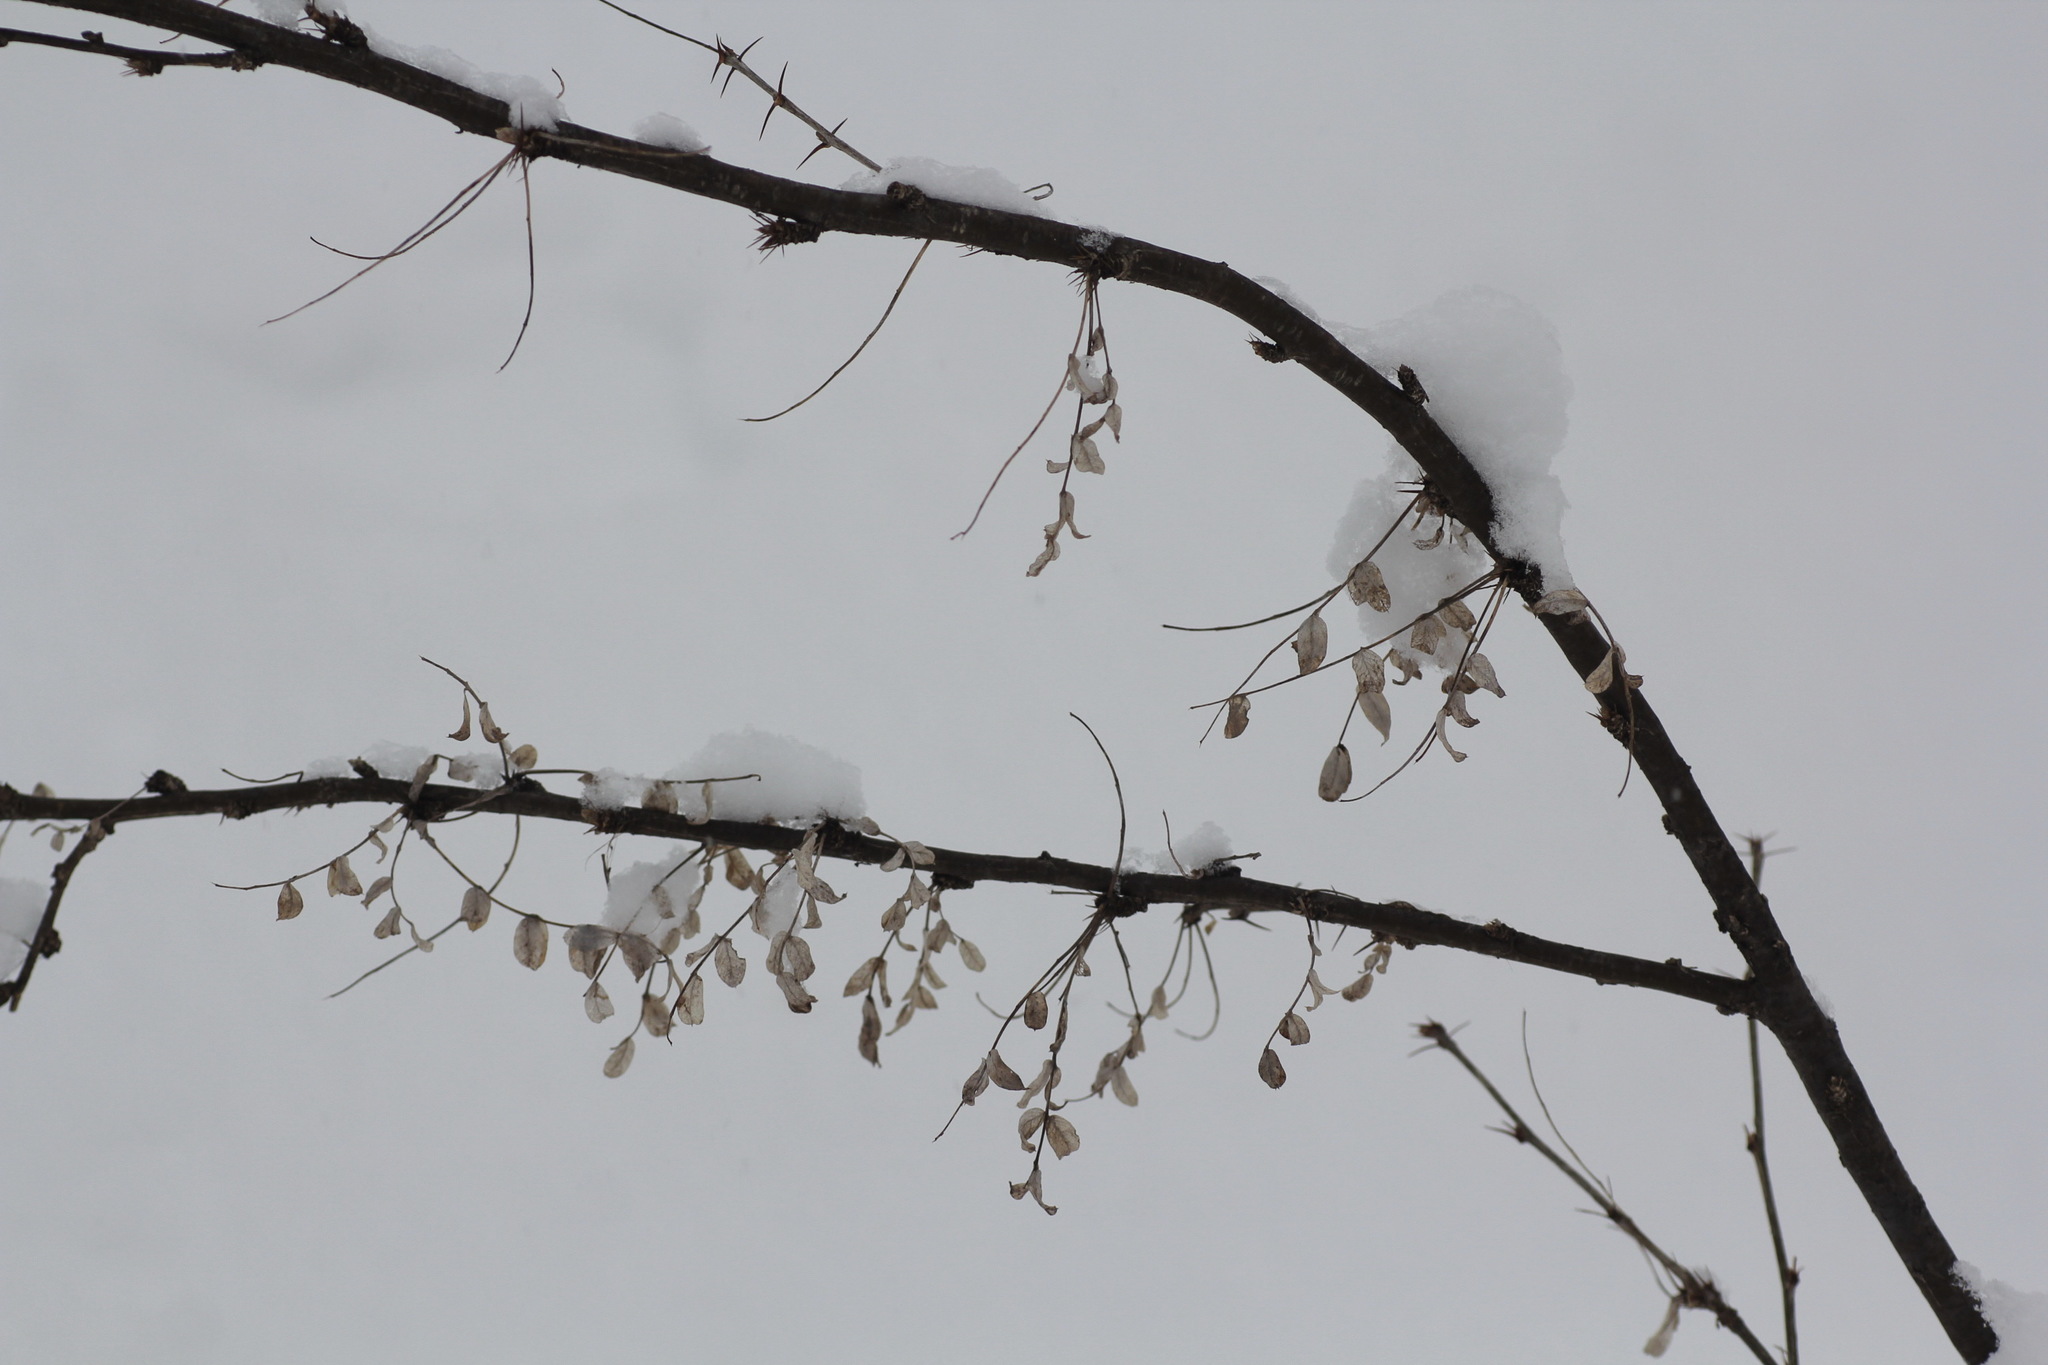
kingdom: Plantae
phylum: Tracheophyta
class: Magnoliopsida
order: Fabales
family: Fabaceae
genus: Caragana
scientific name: Caragana arborescens
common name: Siberian peashrub
